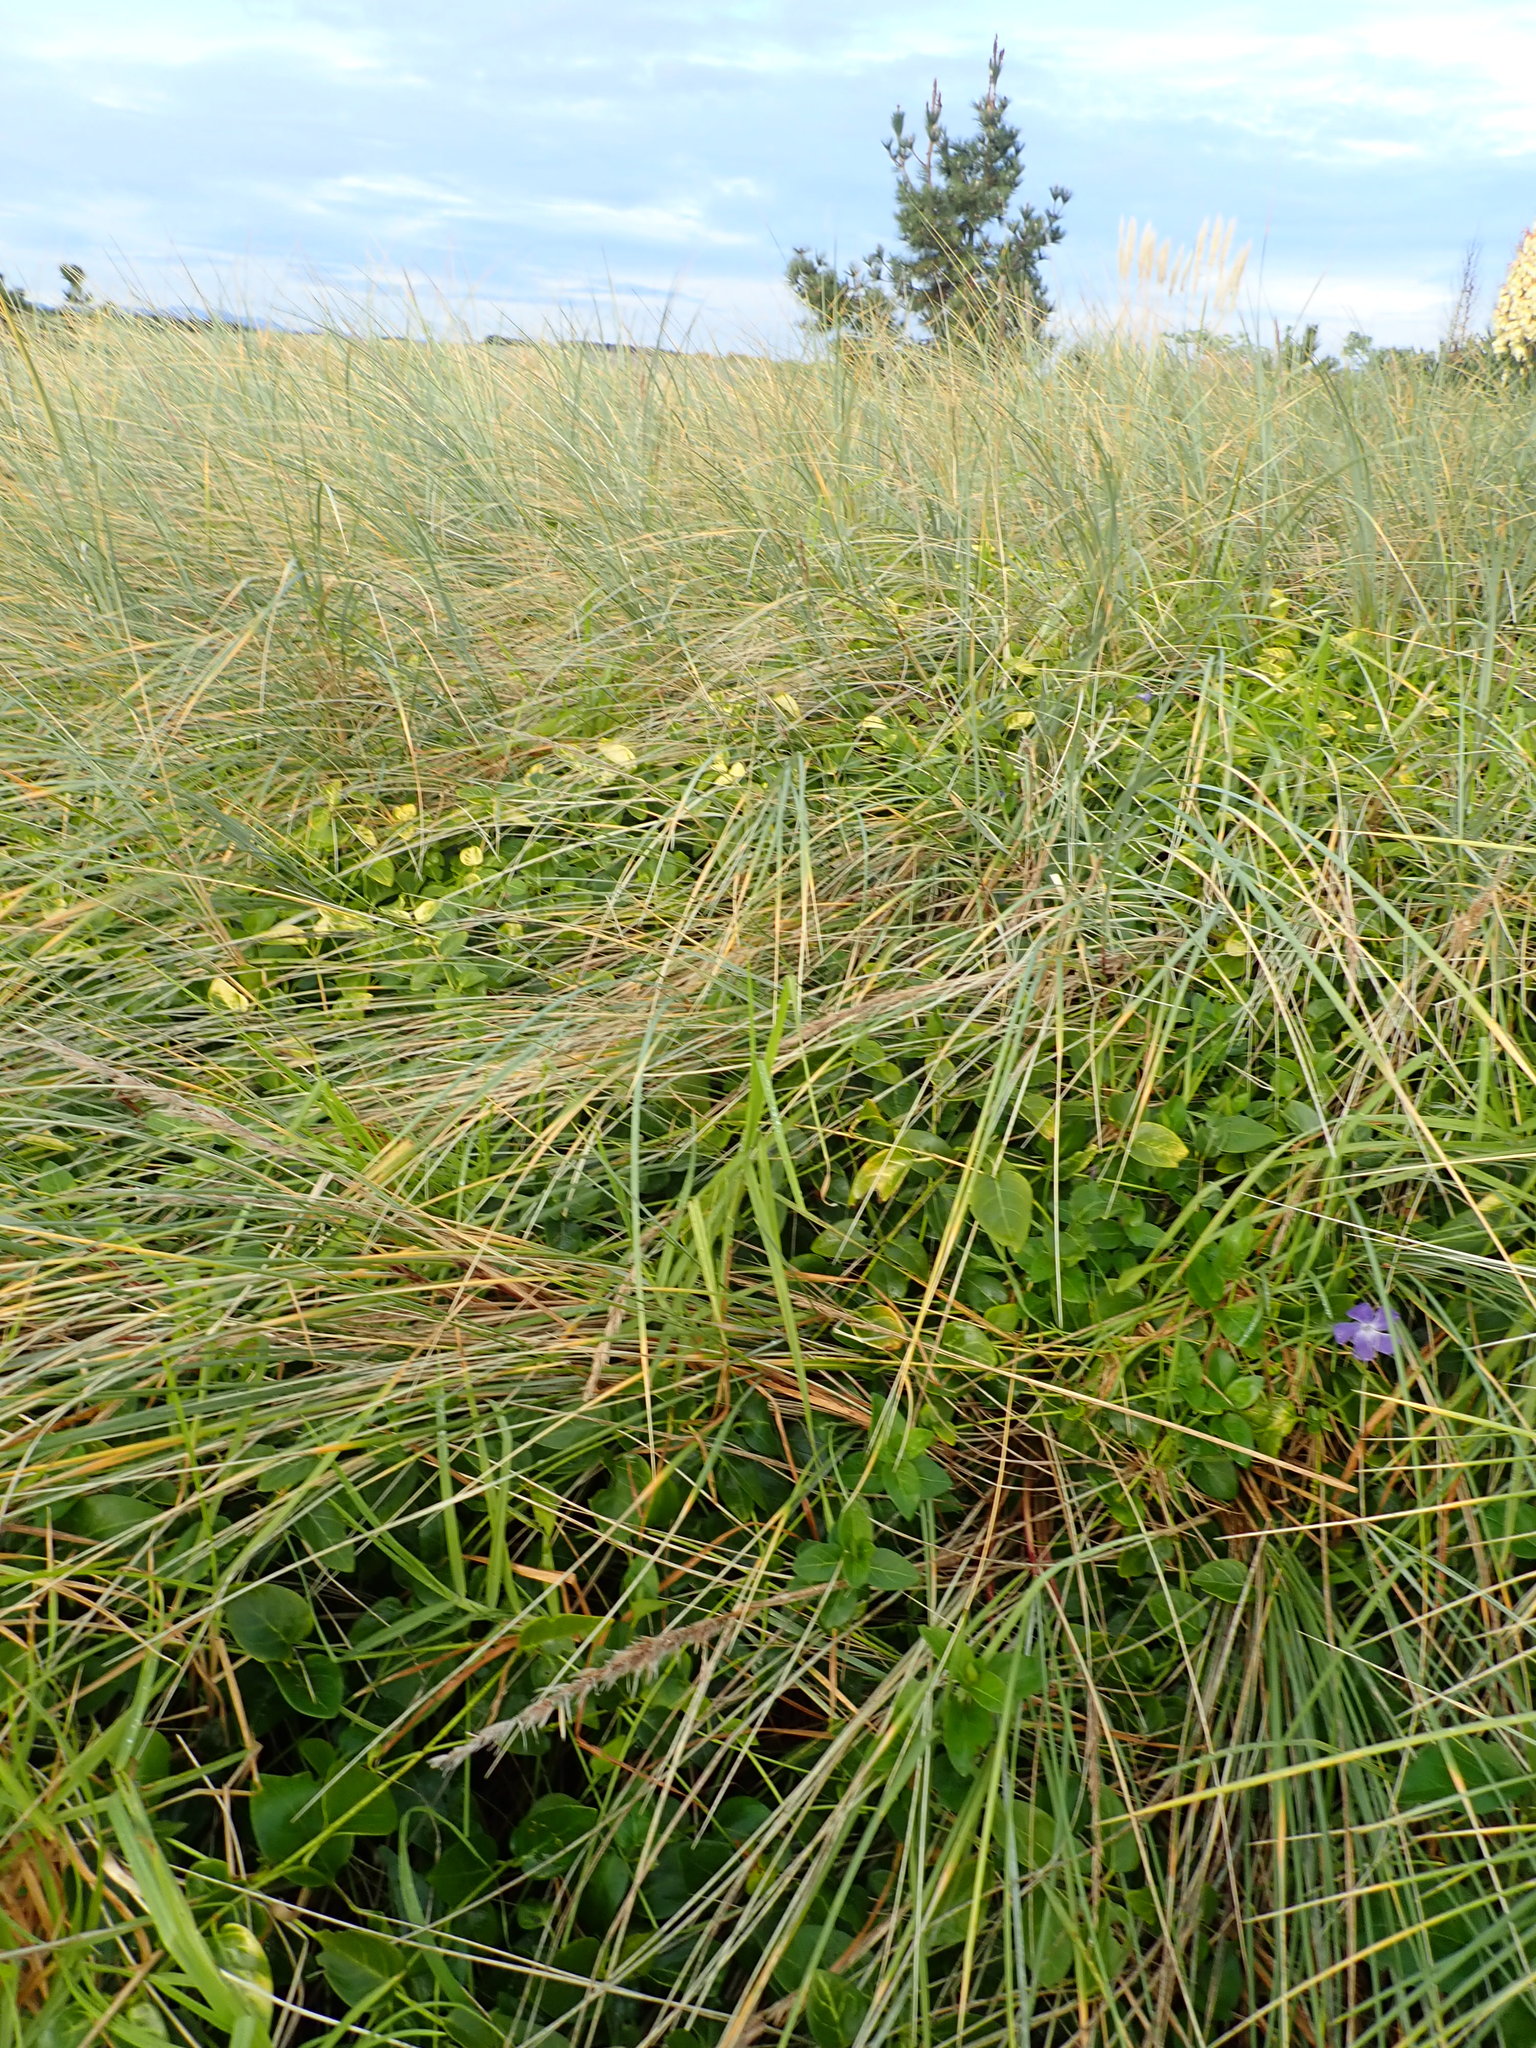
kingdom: Plantae
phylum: Tracheophyta
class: Magnoliopsida
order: Gentianales
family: Apocynaceae
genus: Vinca
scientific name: Vinca major
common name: Greater periwinkle
